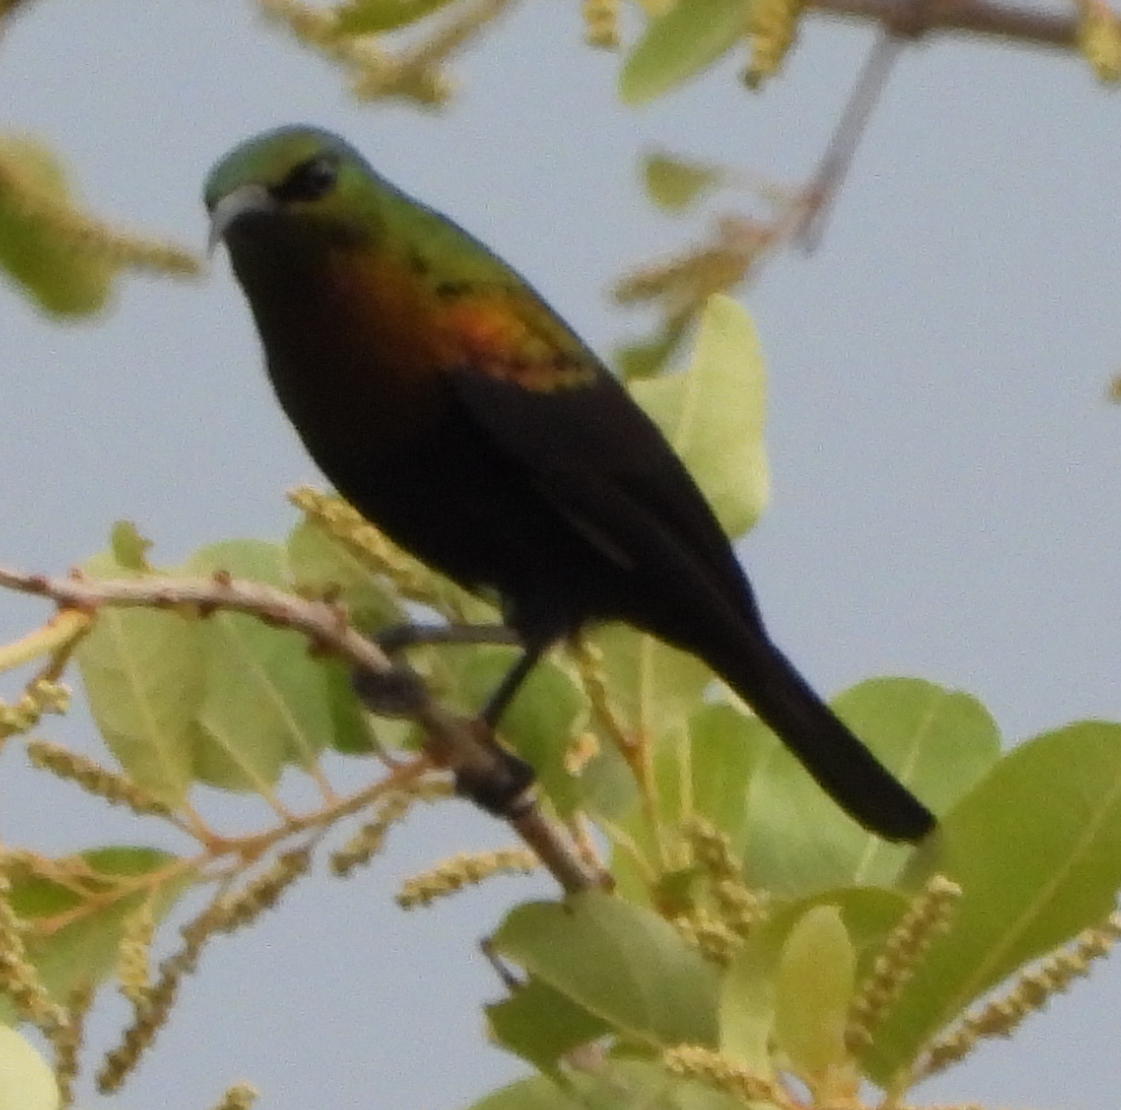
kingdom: Animalia
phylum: Chordata
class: Aves
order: Passeriformes
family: Nectariniidae
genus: Cinnyris
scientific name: Cinnyris cupreus
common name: Copper sunbird
